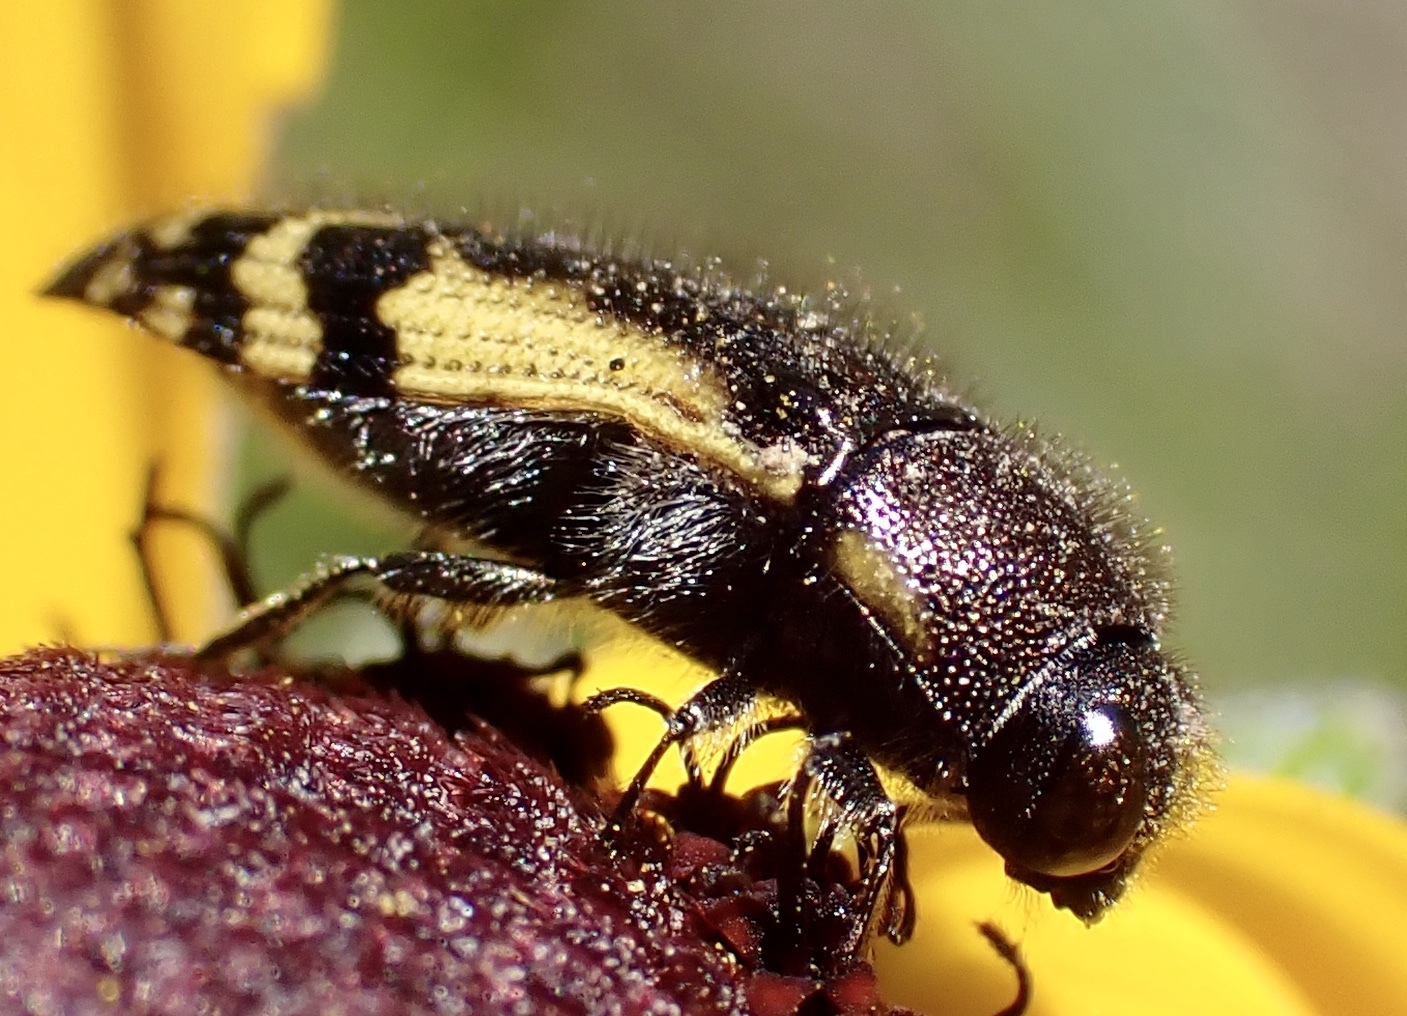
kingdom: Animalia
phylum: Arthropoda
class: Insecta
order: Coleoptera
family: Buprestidae
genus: Acmaeodera
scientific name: Acmaeodera pulchella
